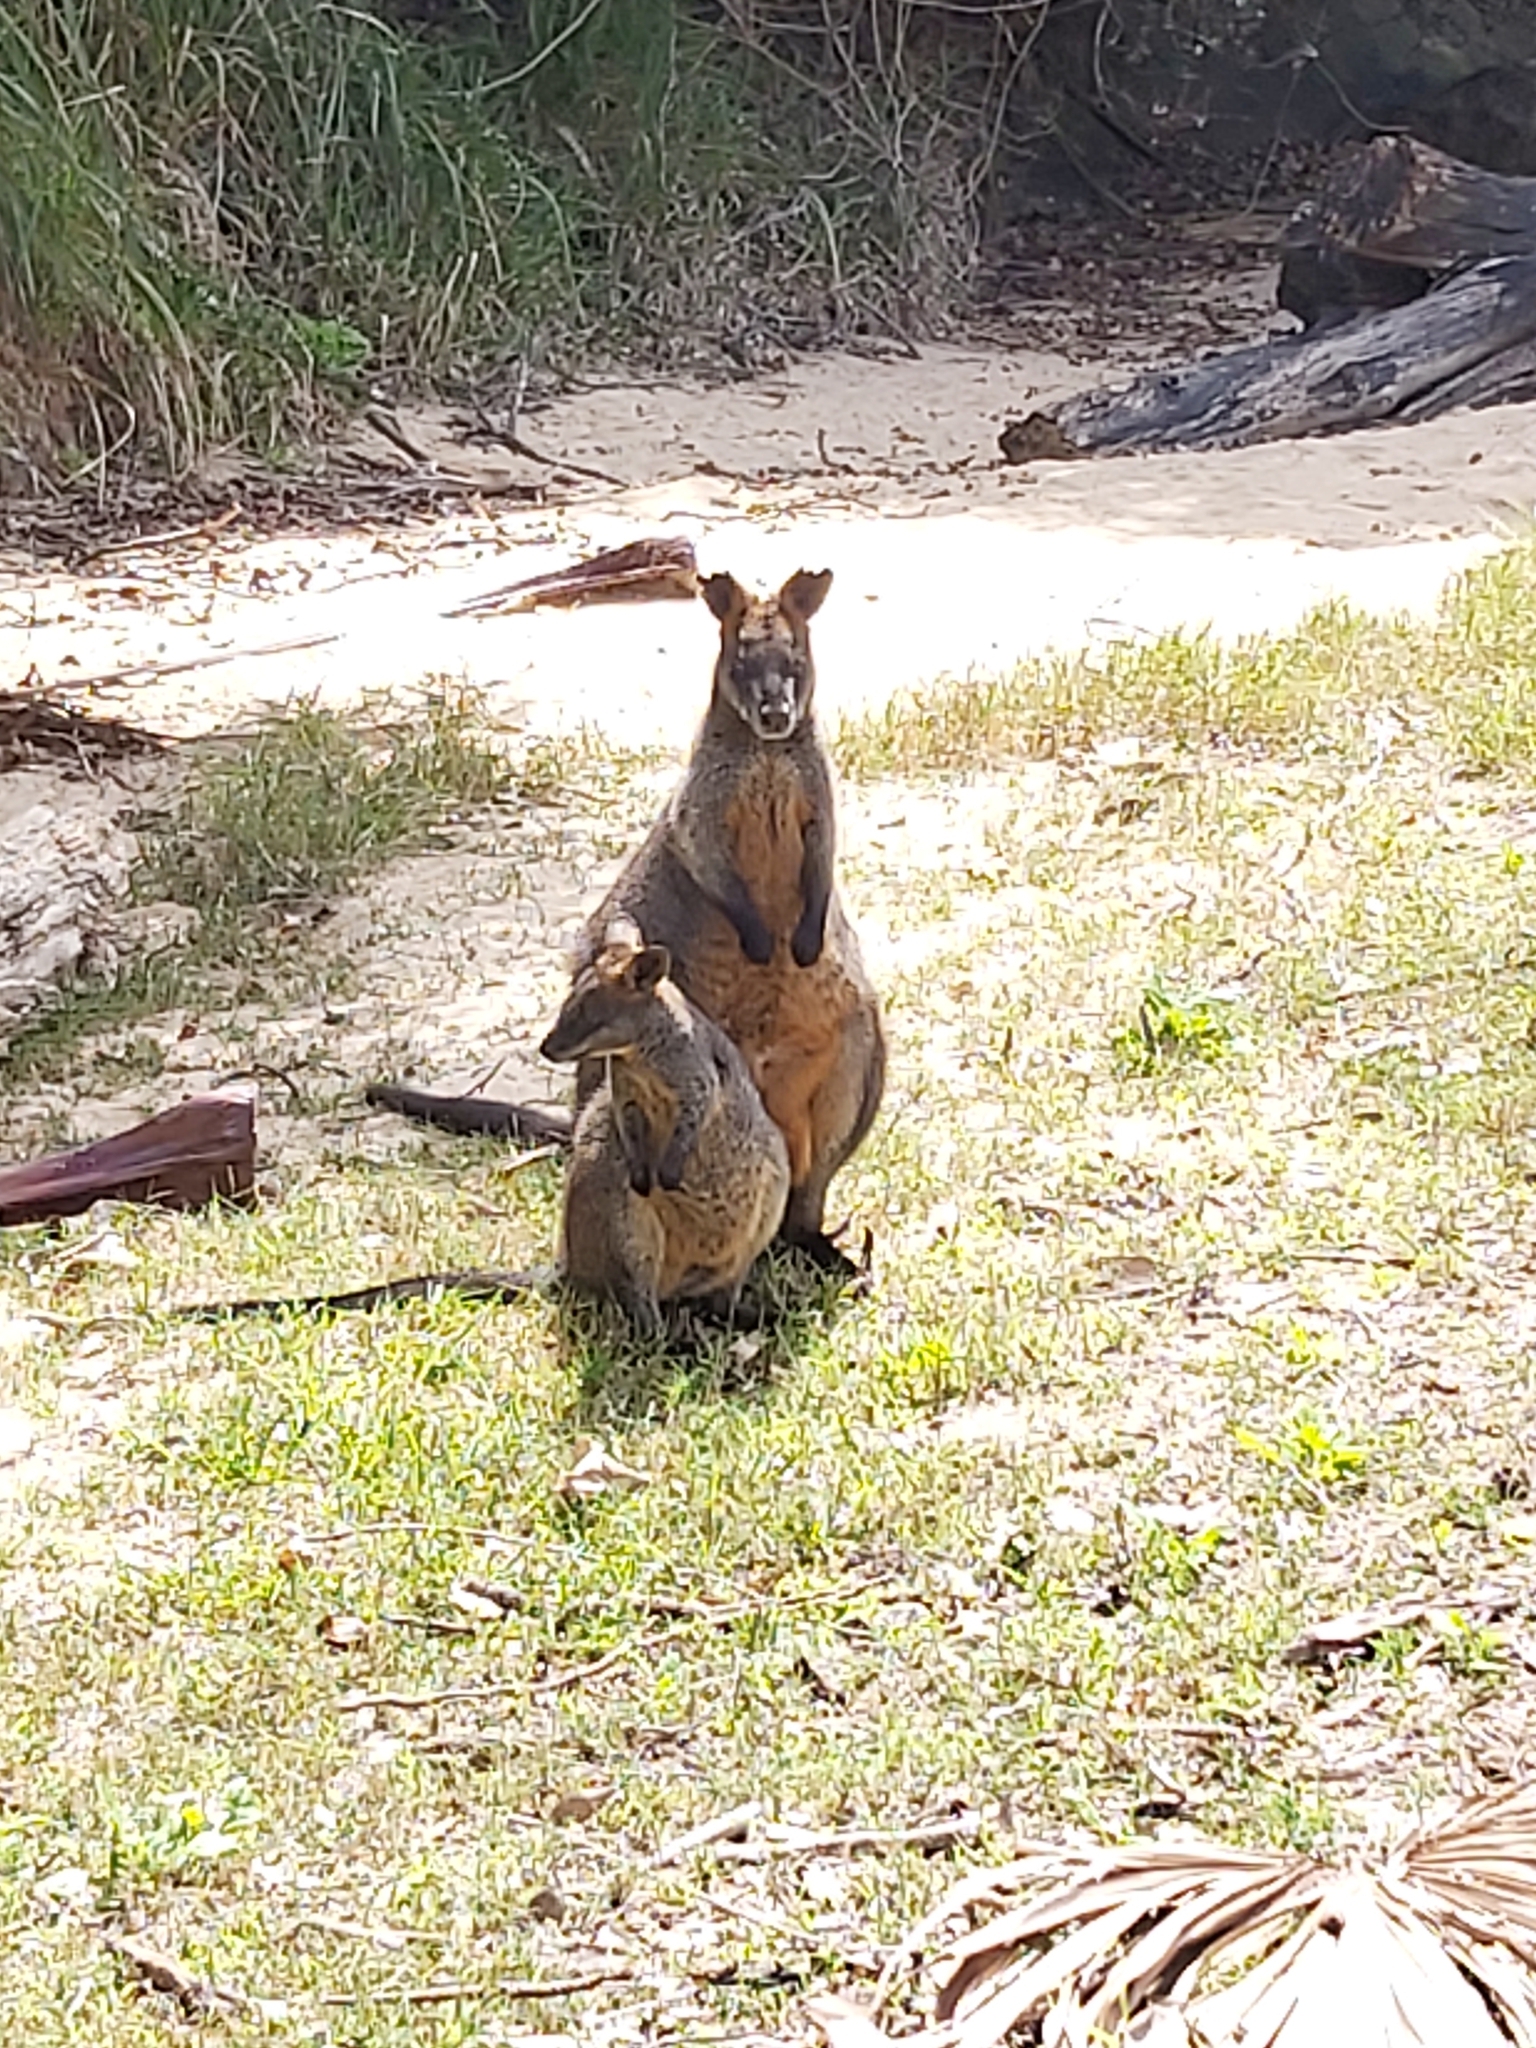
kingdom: Animalia
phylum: Chordata
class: Mammalia
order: Diprotodontia
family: Macropodidae
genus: Wallabia
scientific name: Wallabia bicolor
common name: Swamp wallaby
